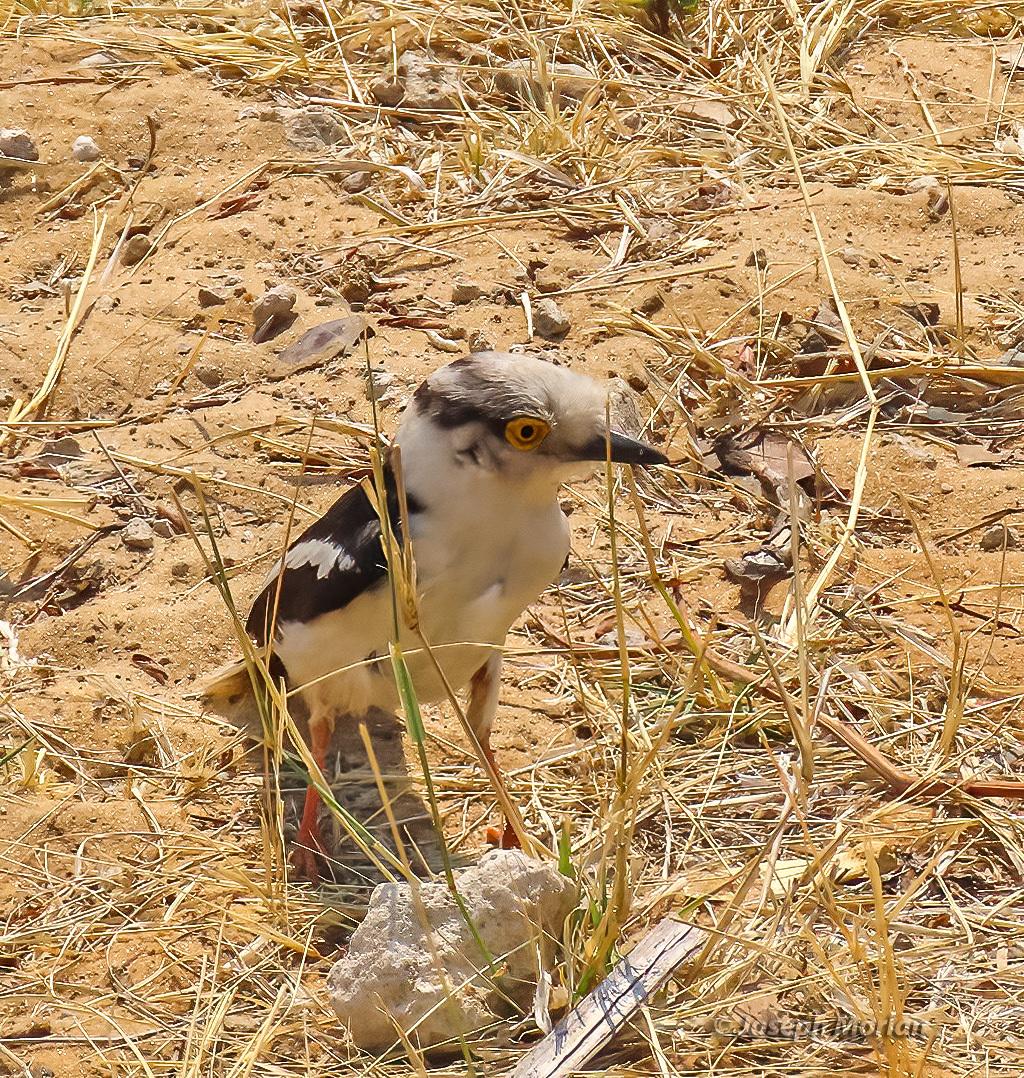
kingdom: Animalia
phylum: Chordata
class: Aves
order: Passeriformes
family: Prionopidae
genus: Prionops
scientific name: Prionops plumatus
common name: White-crested helmetshrike
